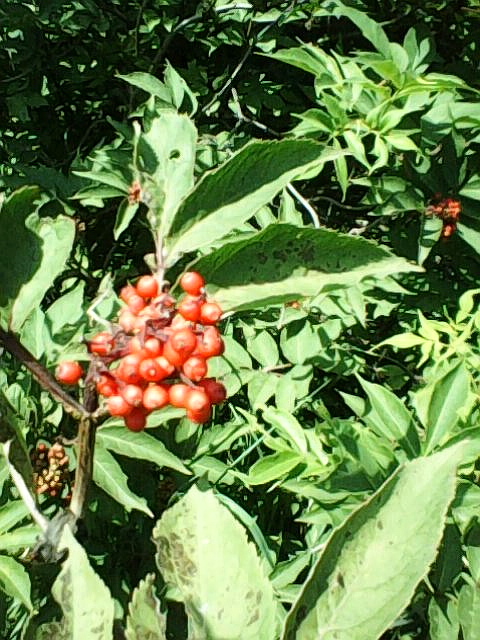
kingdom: Plantae
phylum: Tracheophyta
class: Magnoliopsida
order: Dipsacales
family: Viburnaceae
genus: Sambucus
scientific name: Sambucus racemosa
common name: Red-berried elder
